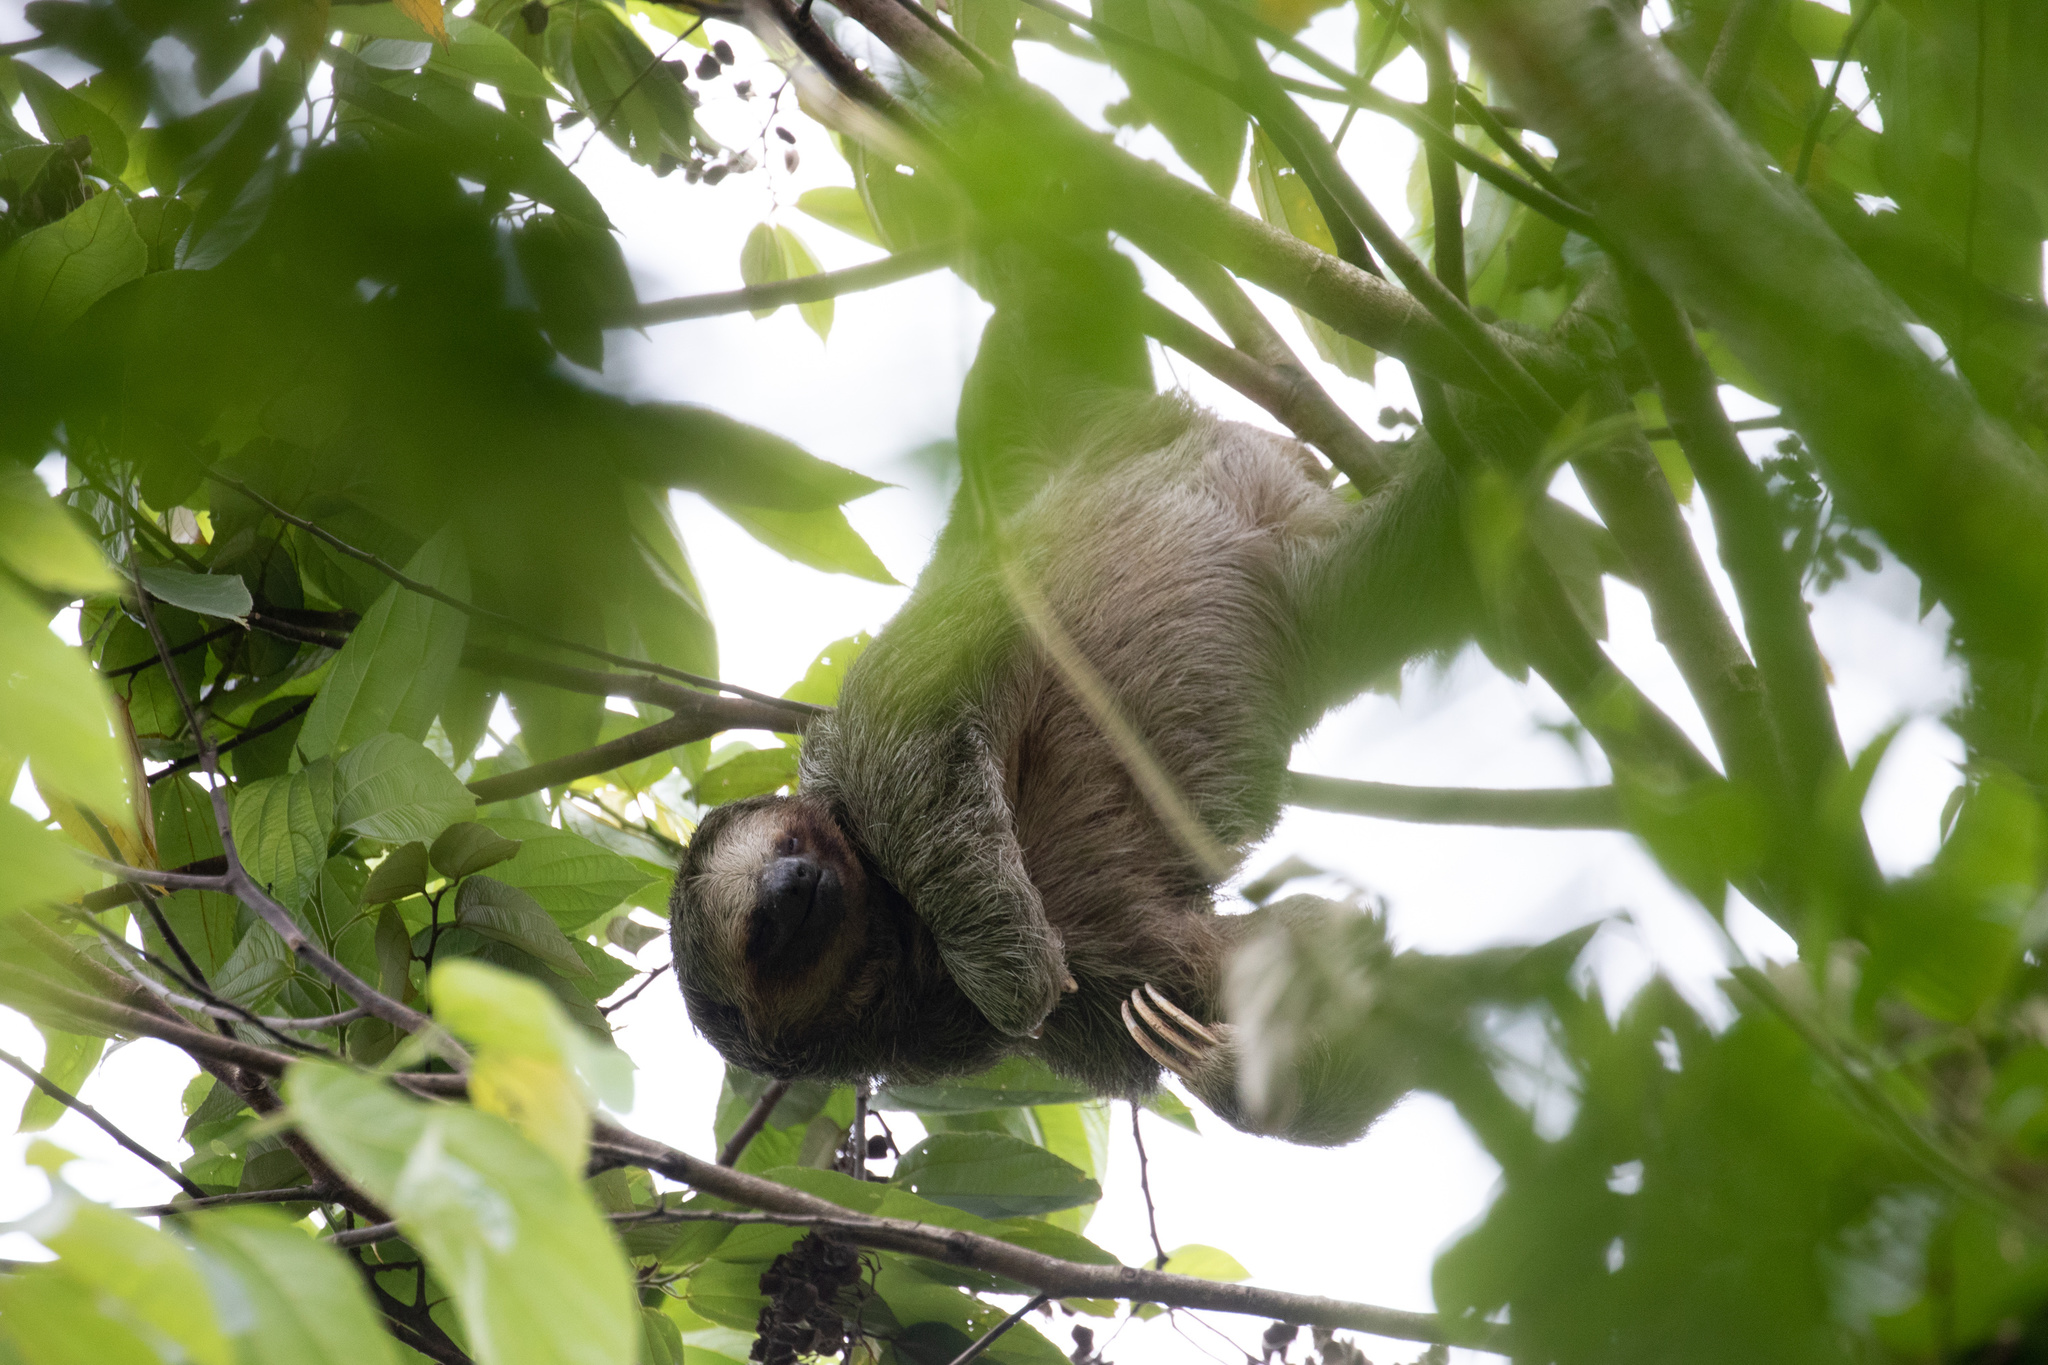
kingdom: Animalia
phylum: Chordata
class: Mammalia
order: Pilosa
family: Bradypodidae
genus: Bradypus
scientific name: Bradypus variegatus
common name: Brown-throated three-toed sloth
